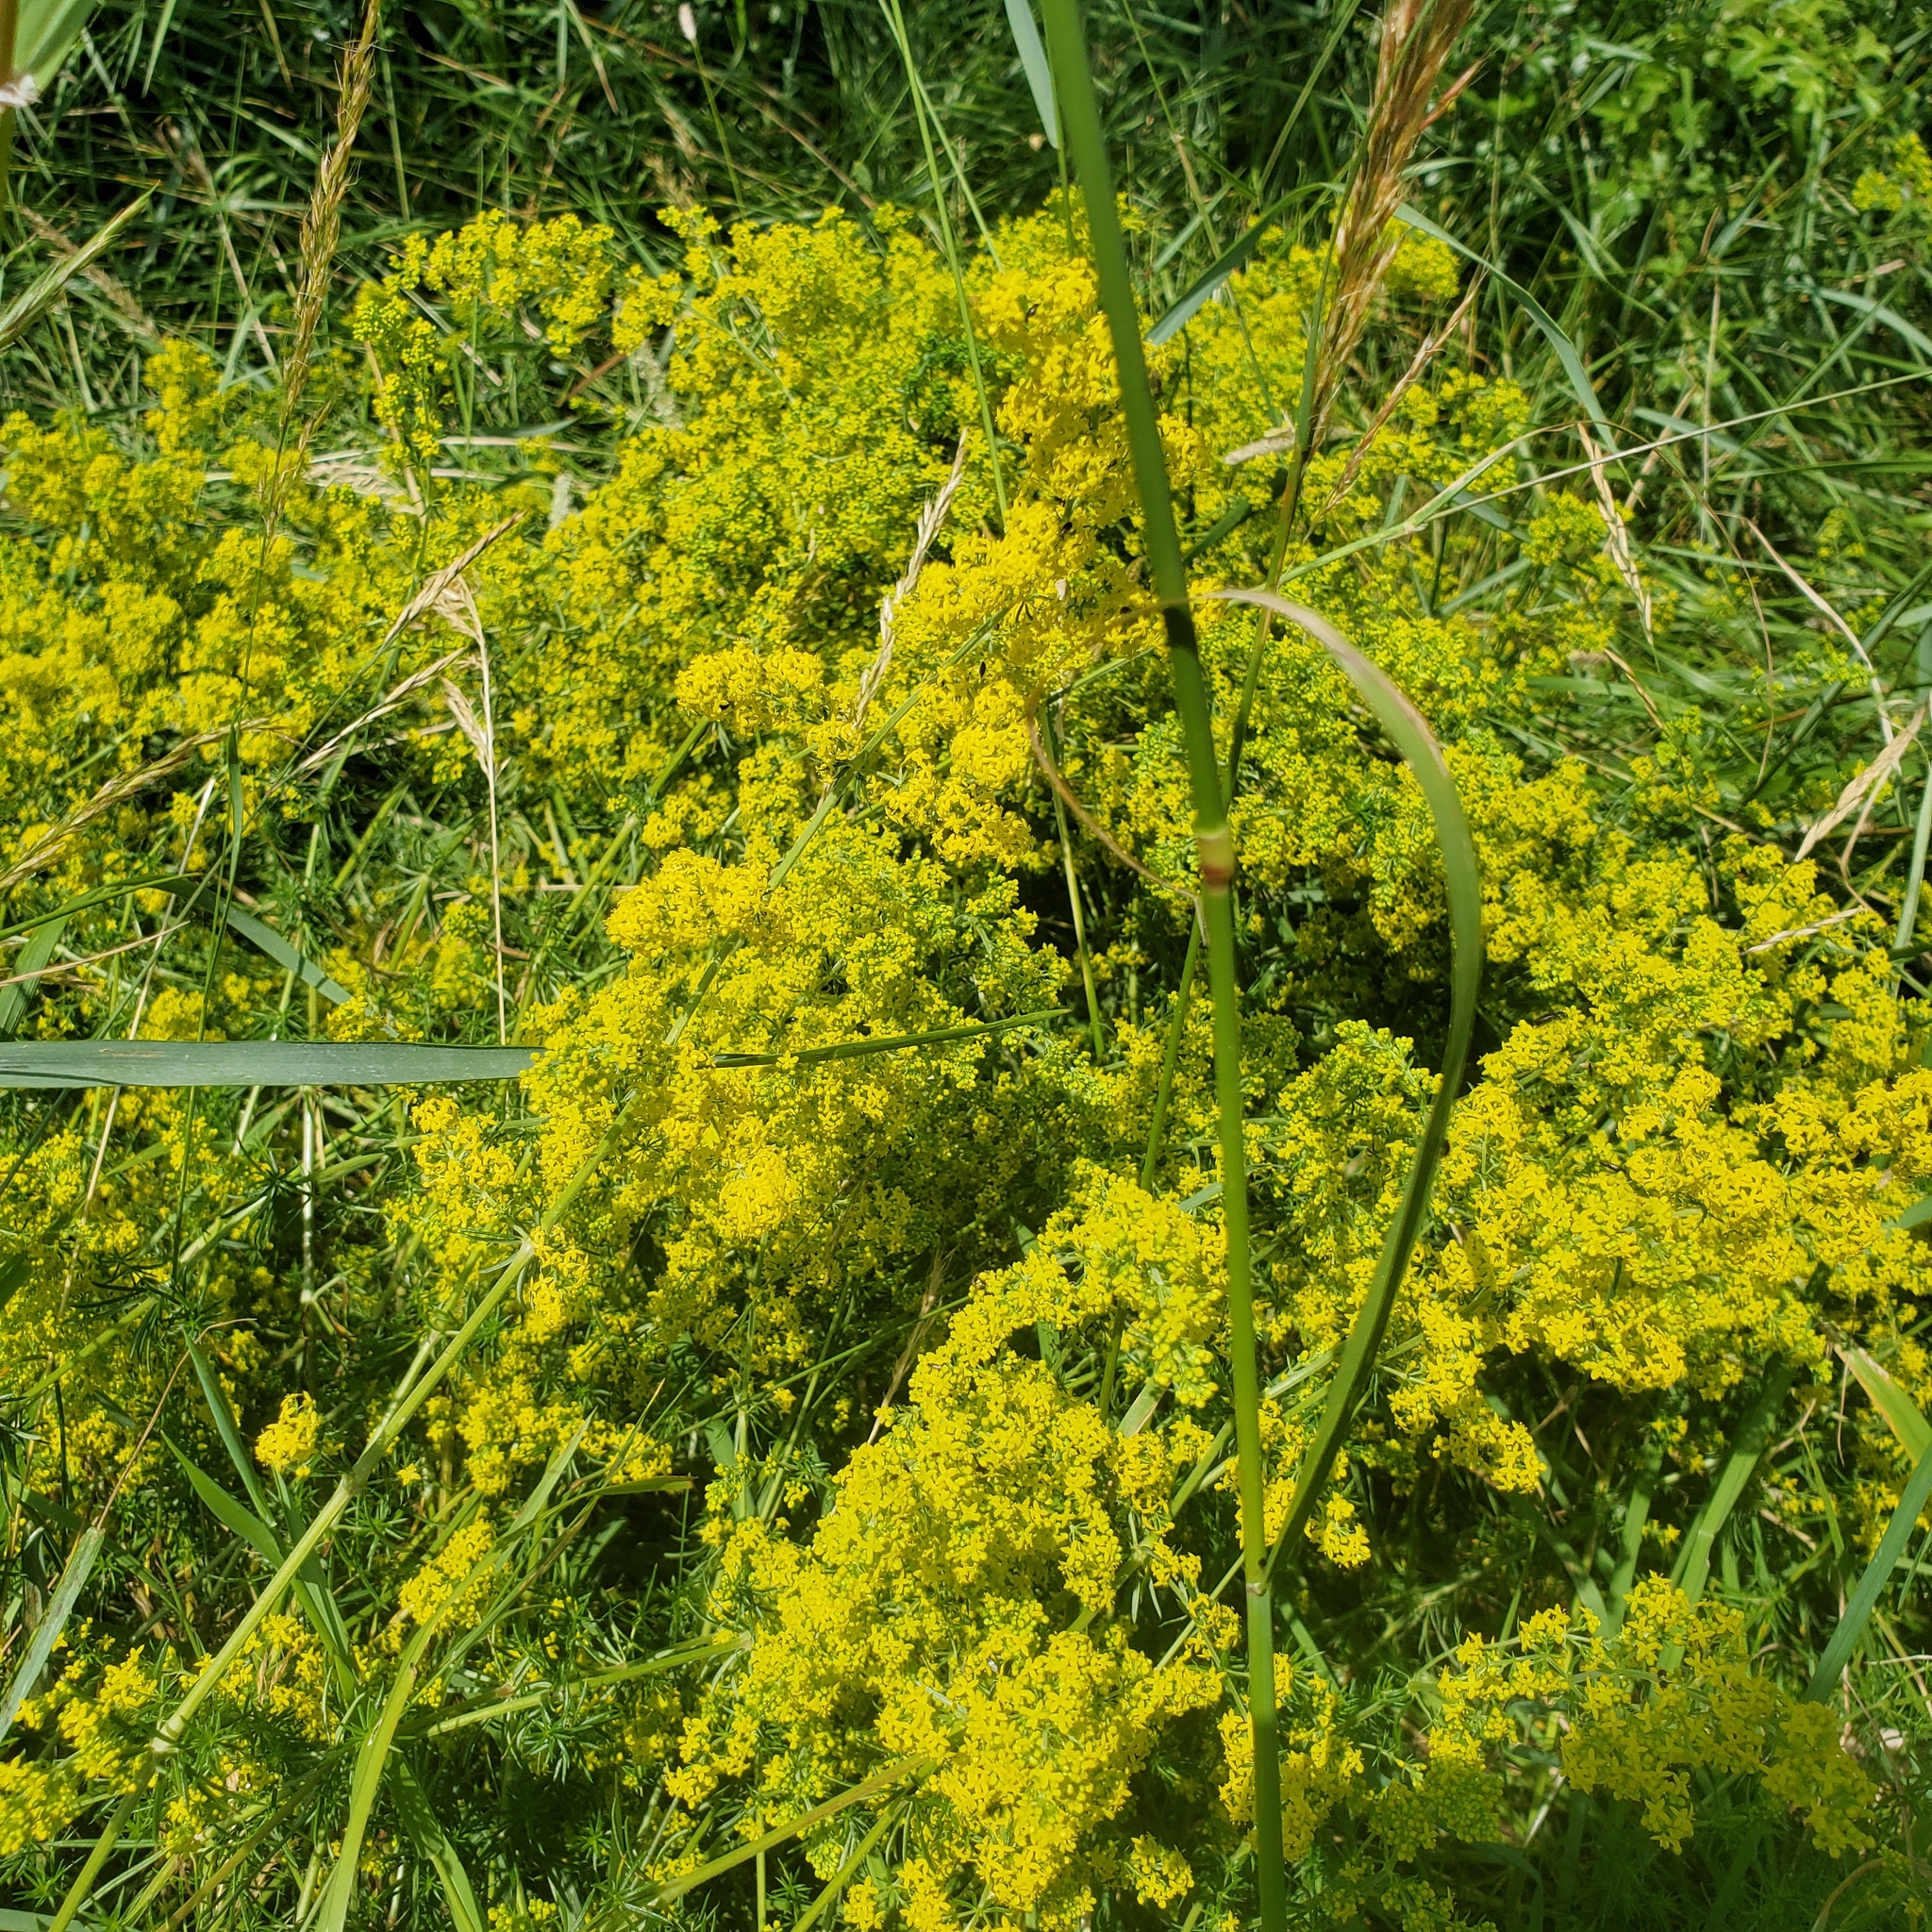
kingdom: Plantae
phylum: Tracheophyta
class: Magnoliopsida
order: Gentianales
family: Rubiaceae
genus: Galium
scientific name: Galium verum
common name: Lady's bedstraw
